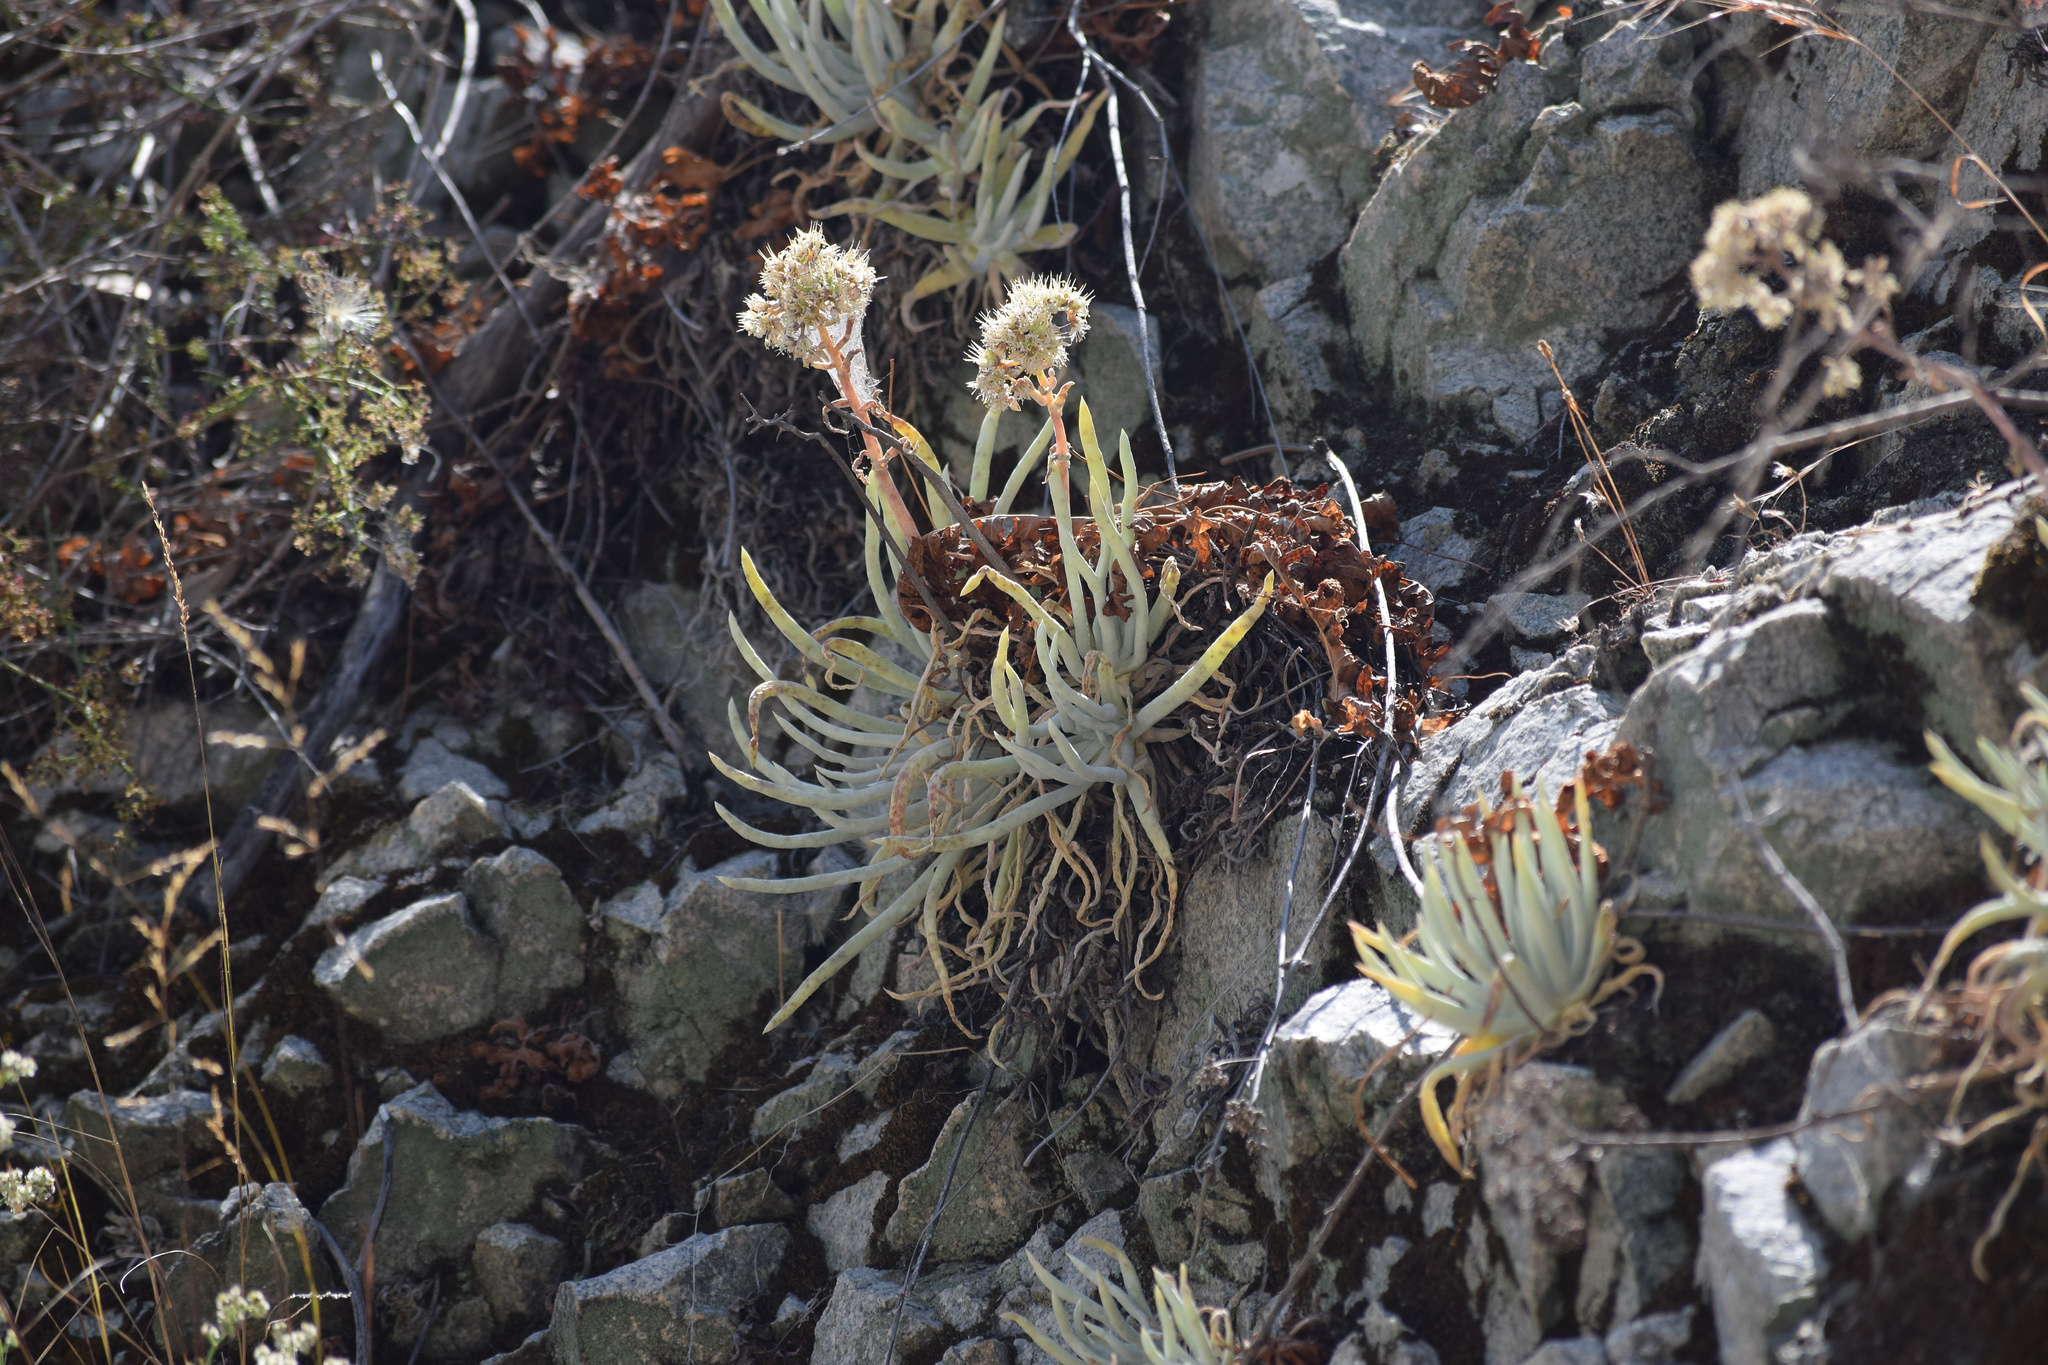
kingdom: Plantae
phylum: Tracheophyta
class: Magnoliopsida
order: Saxifragales
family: Crassulaceae
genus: Dudleya
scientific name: Dudleya densiflora
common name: San gabriel mountains dudleya
